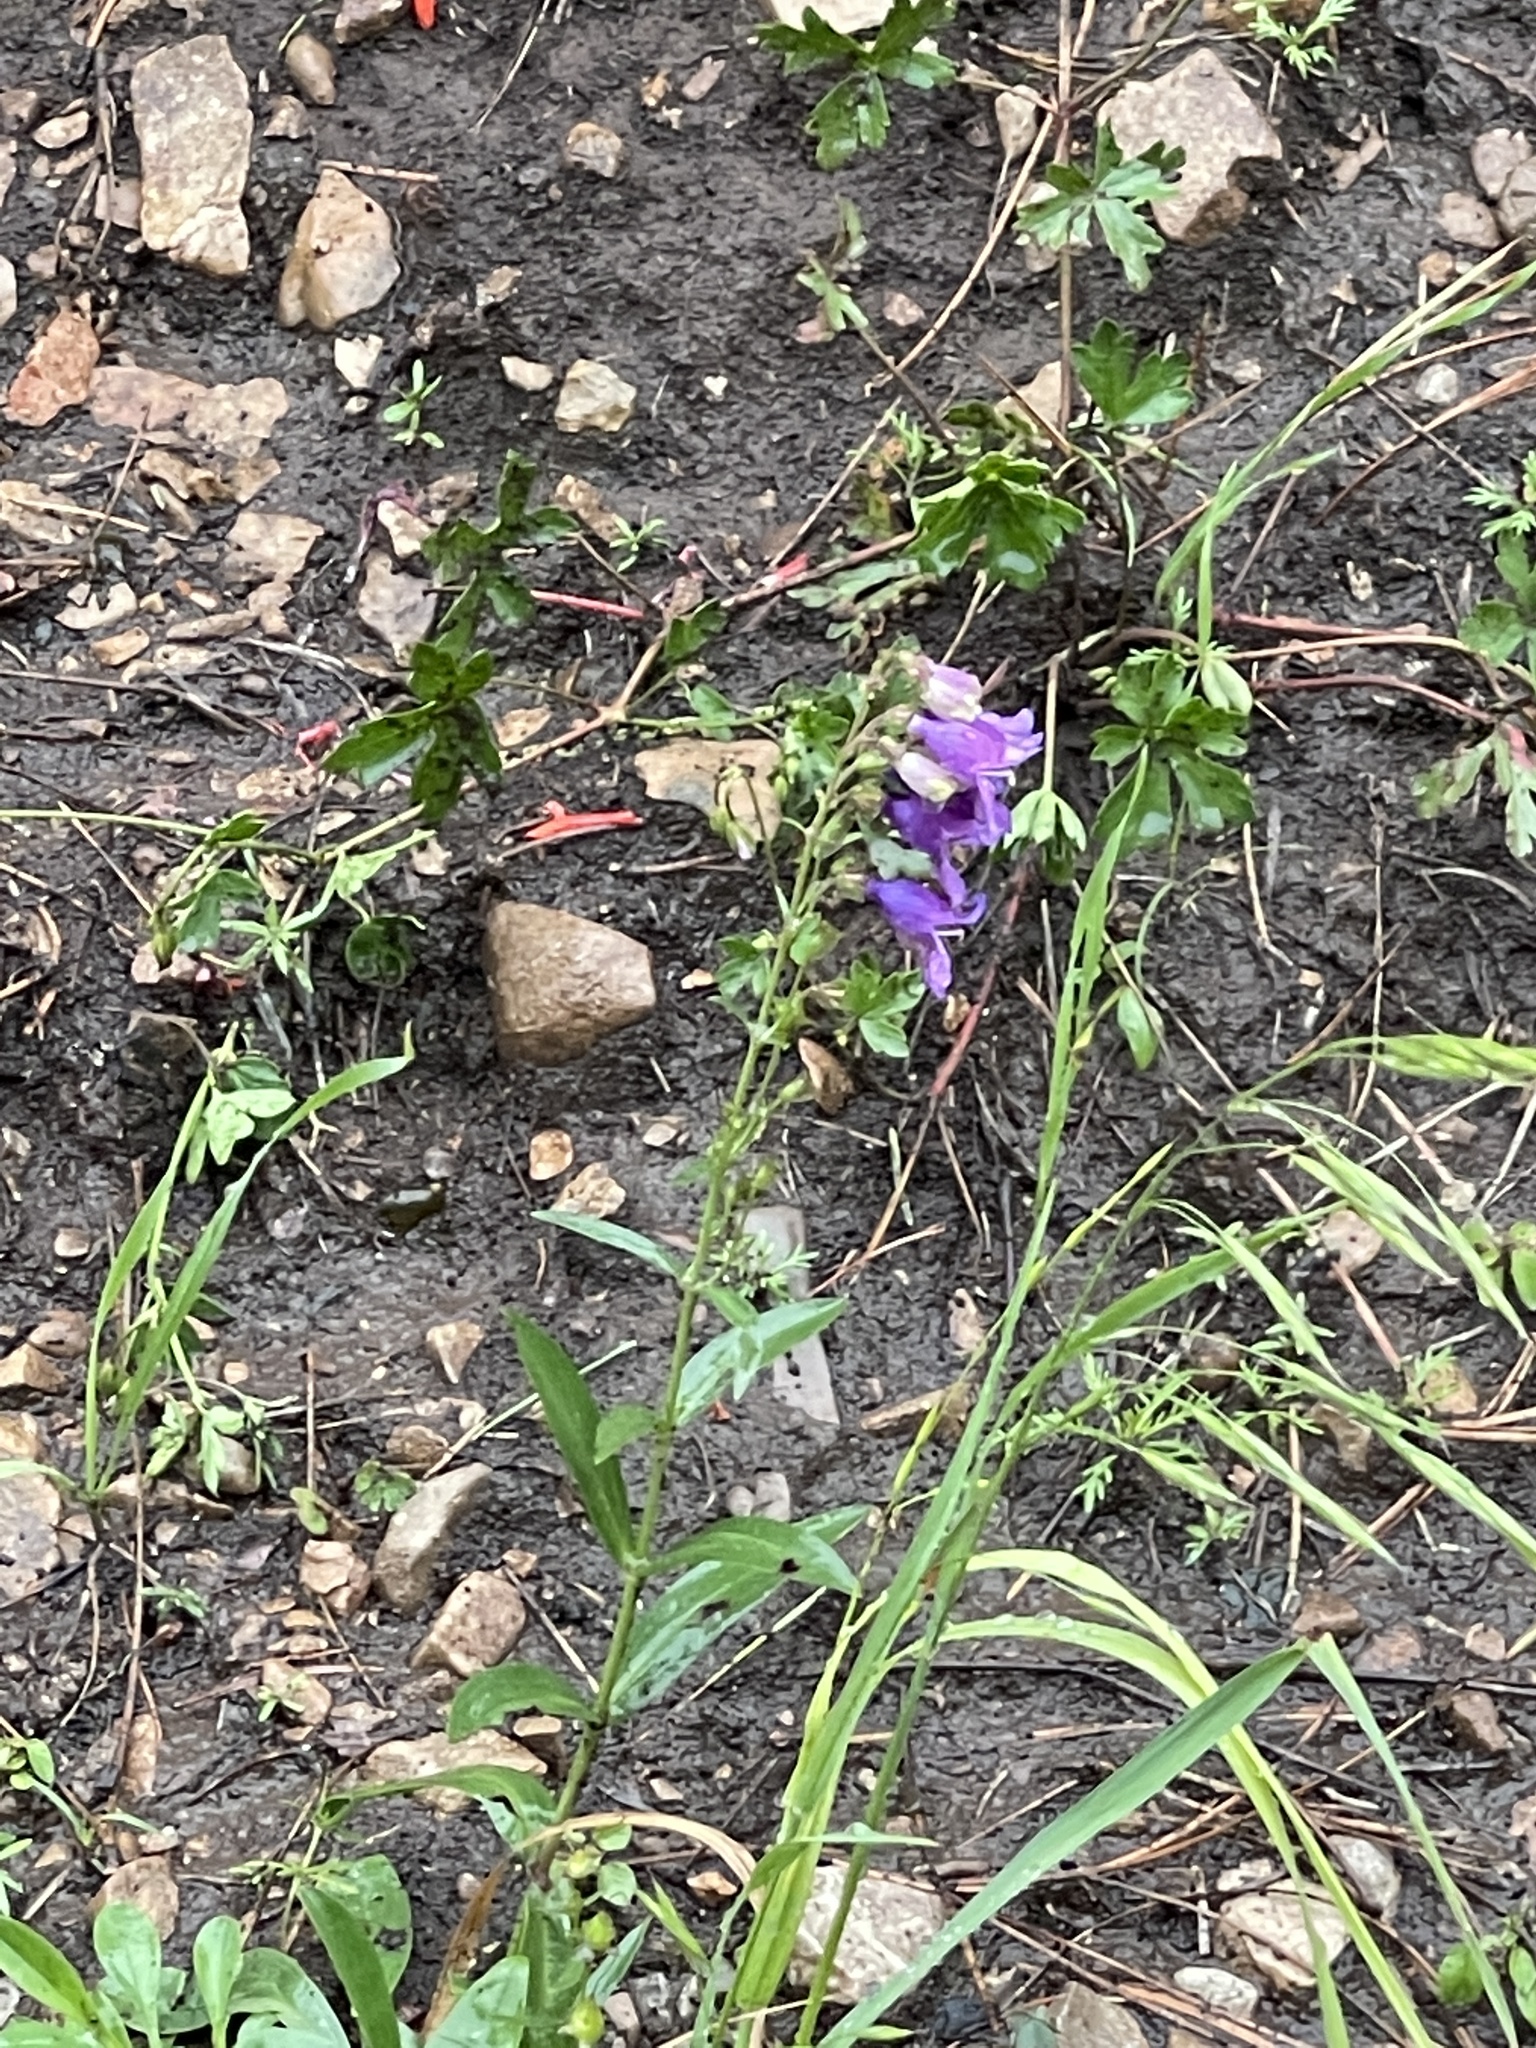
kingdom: Plantae
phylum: Tracheophyta
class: Magnoliopsida
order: Lamiales
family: Plantaginaceae
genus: Penstemon
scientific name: Penstemon neomexicanus
